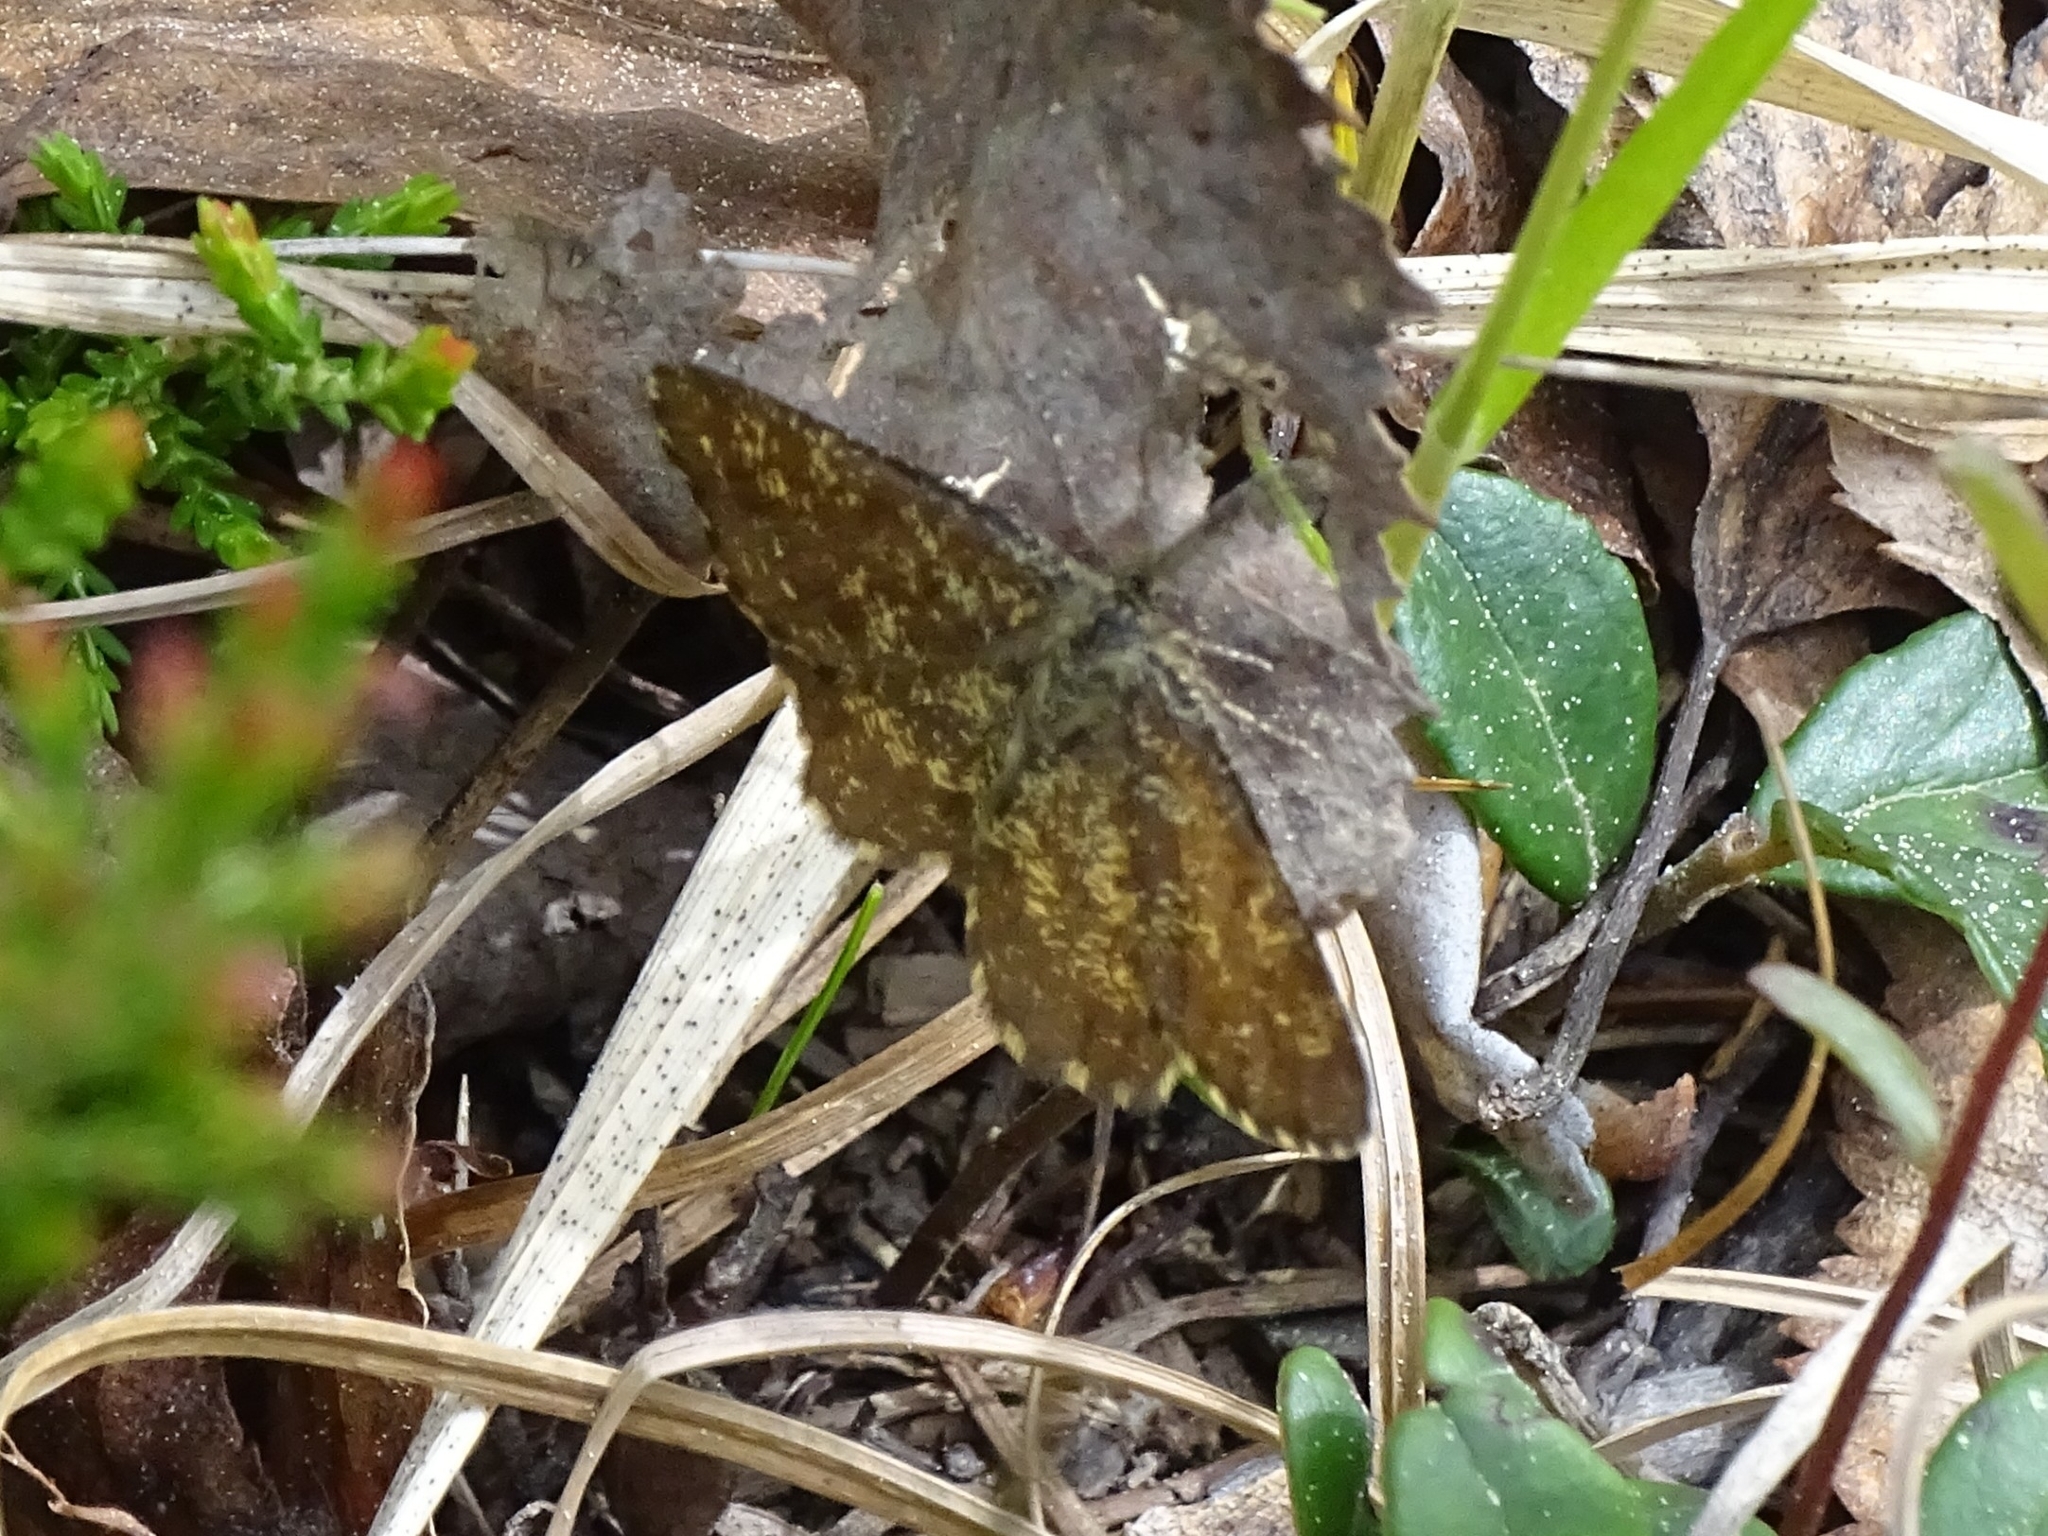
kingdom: Animalia
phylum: Arthropoda
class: Insecta
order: Lepidoptera
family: Geometridae
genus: Ematurga
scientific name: Ematurga atomaria
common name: Common heath
